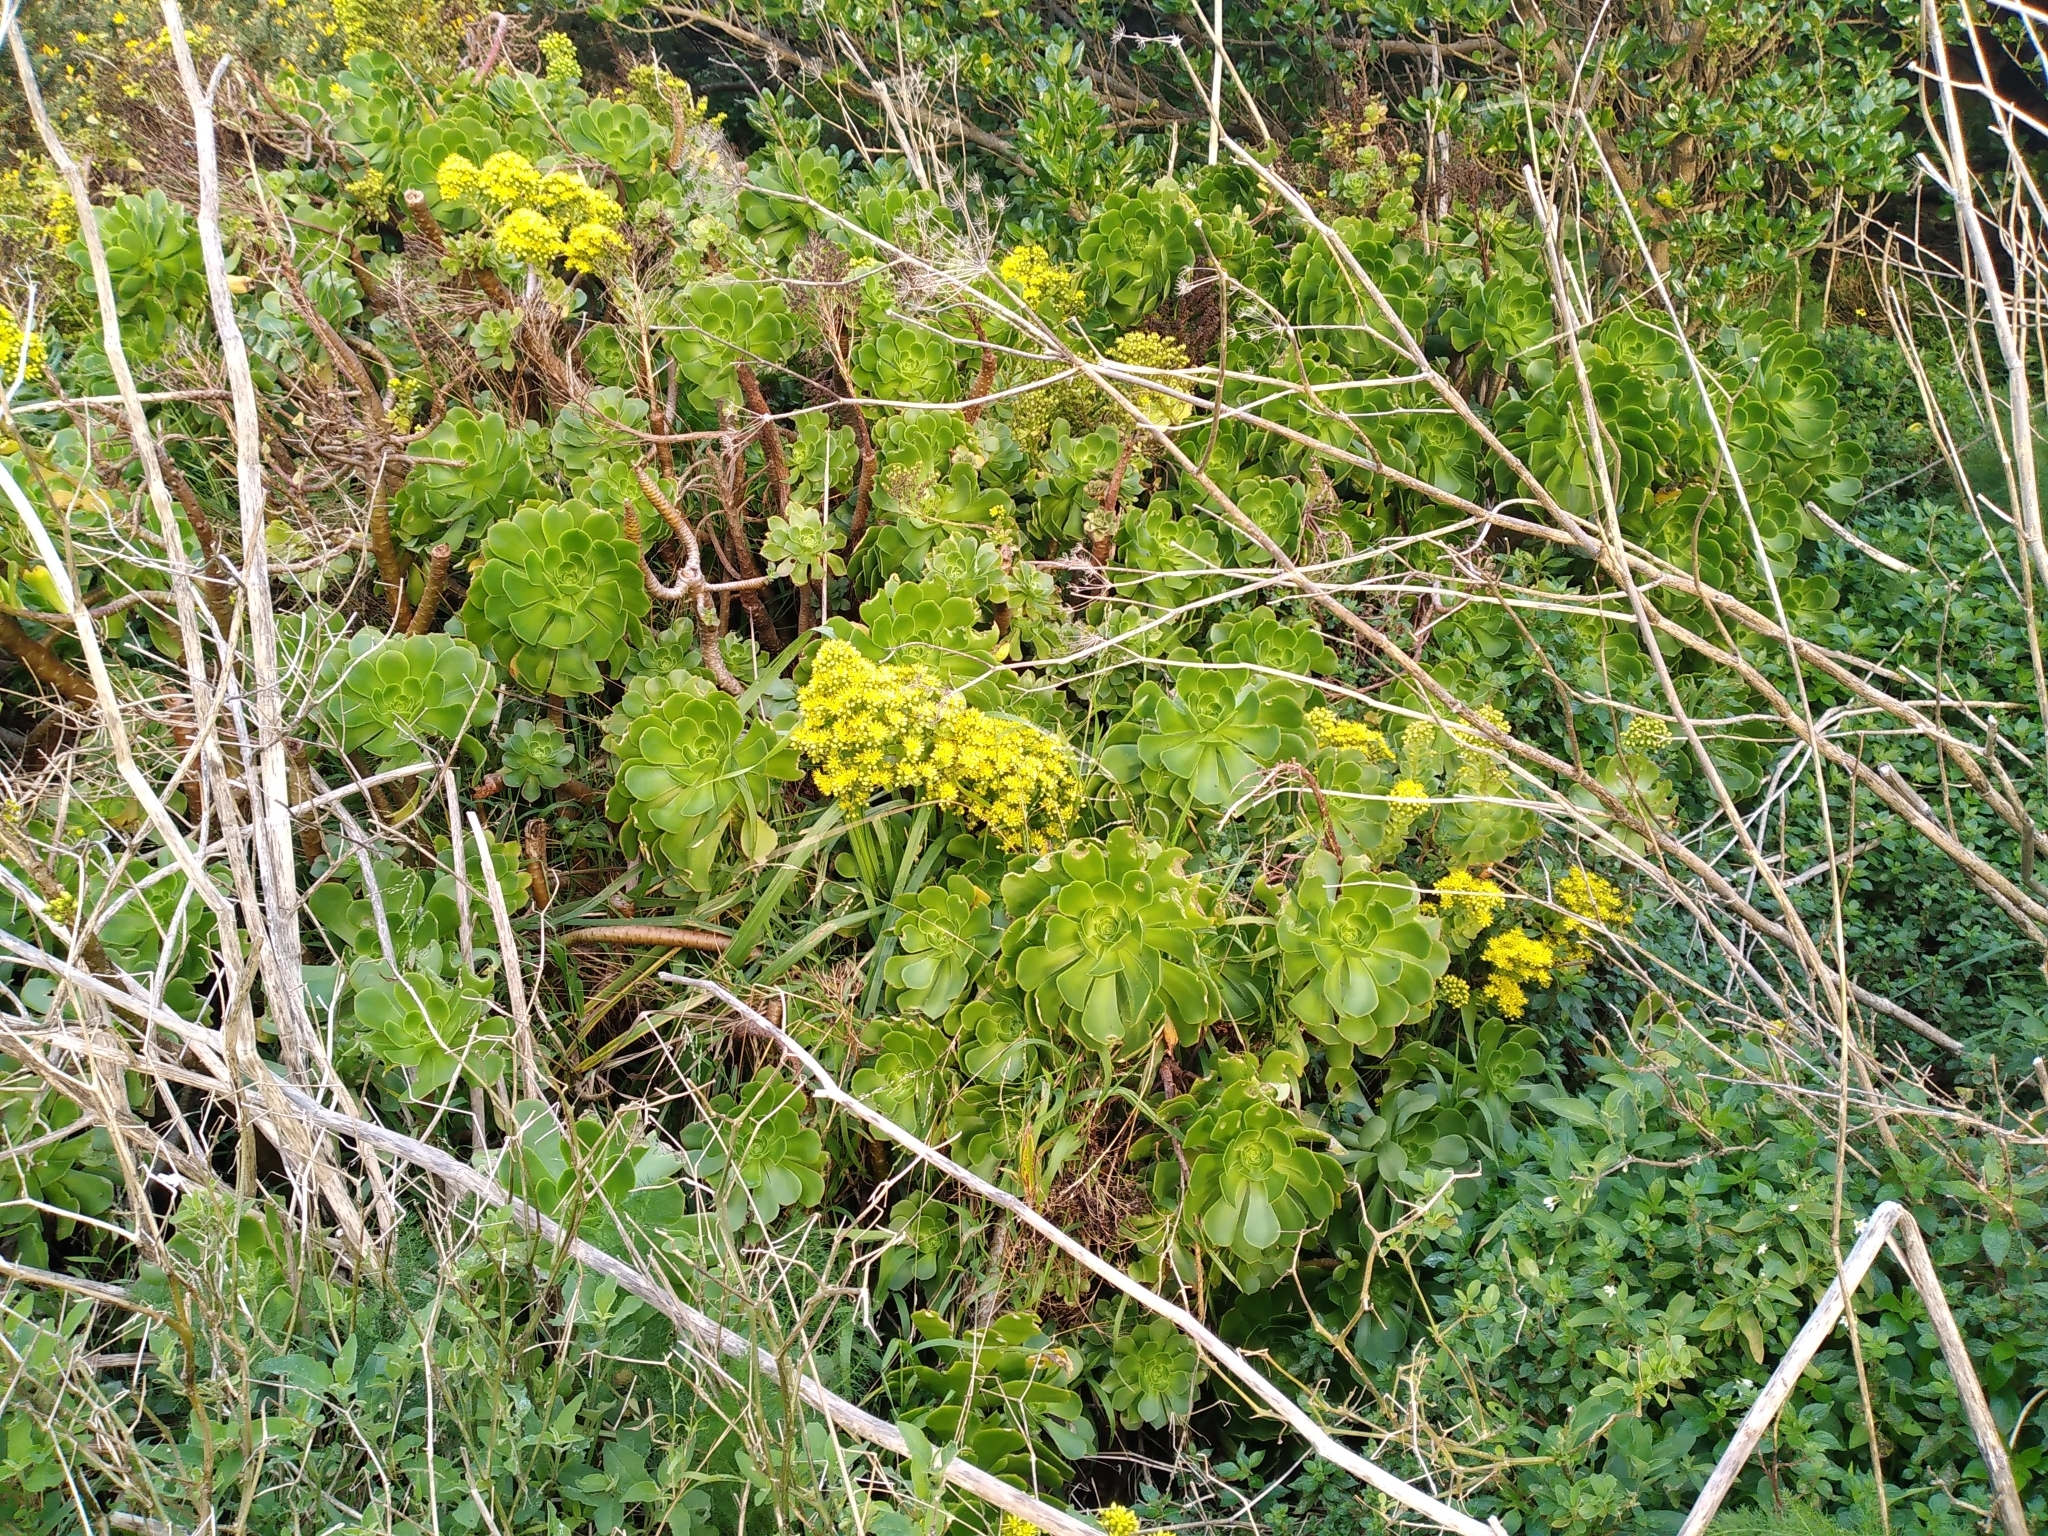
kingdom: Plantae
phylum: Tracheophyta
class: Magnoliopsida
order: Saxifragales
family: Crassulaceae
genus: Aeonium
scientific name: Aeonium arboreum
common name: Tree aeonium
